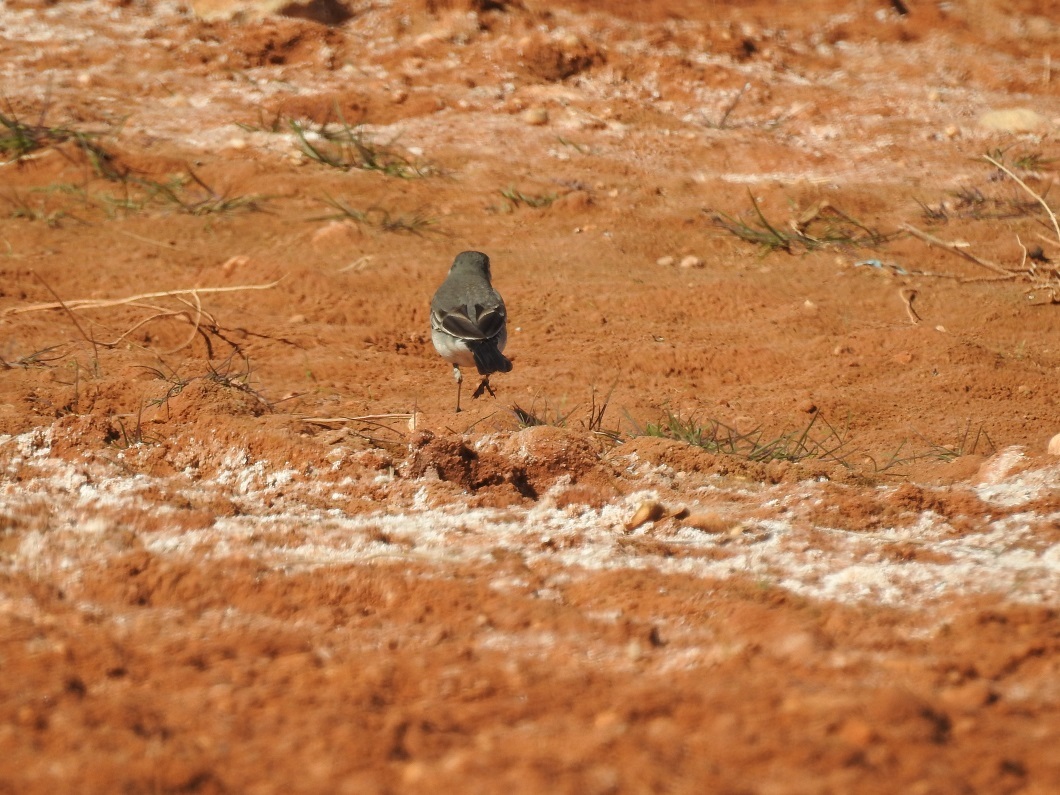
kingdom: Animalia
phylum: Chordata
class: Aves
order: Passeriformes
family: Motacillidae
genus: Motacilla
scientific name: Motacilla alba
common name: White wagtail
